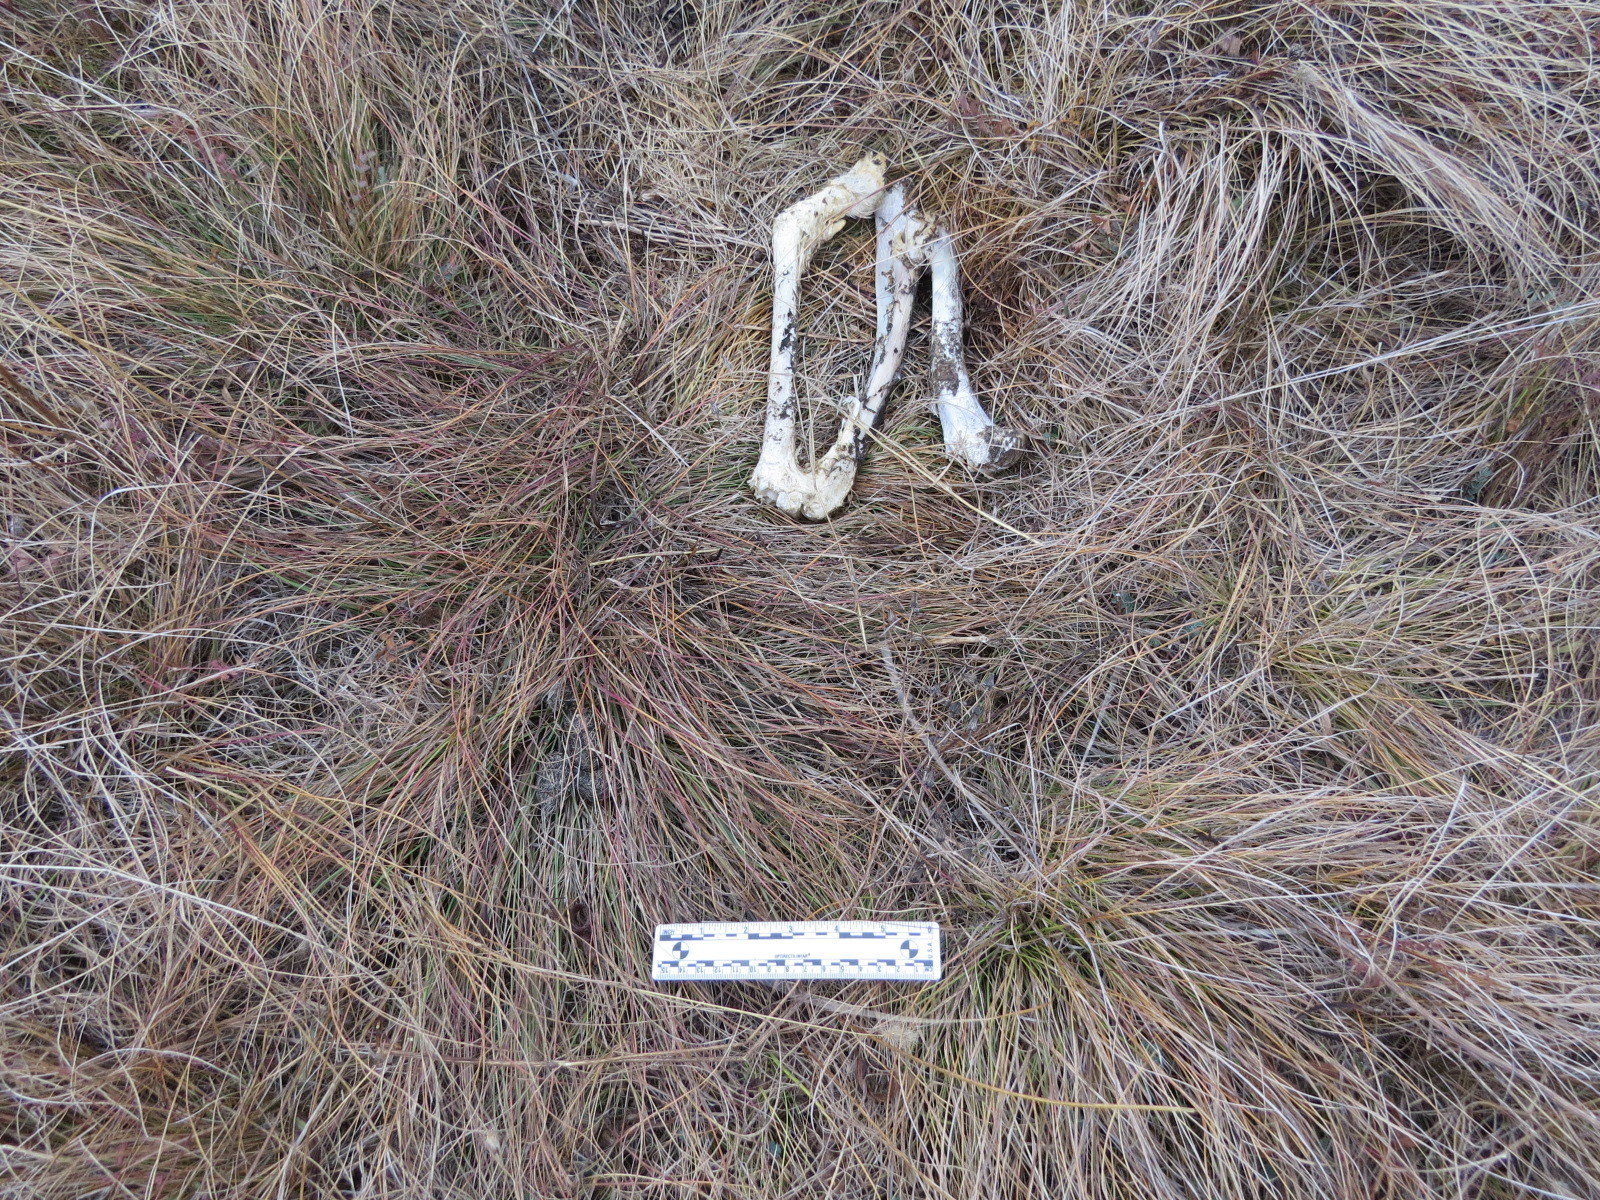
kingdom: Animalia
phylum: Chordata
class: Mammalia
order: Carnivora
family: Canidae
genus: Canis
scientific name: Canis latrans
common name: Coyote
